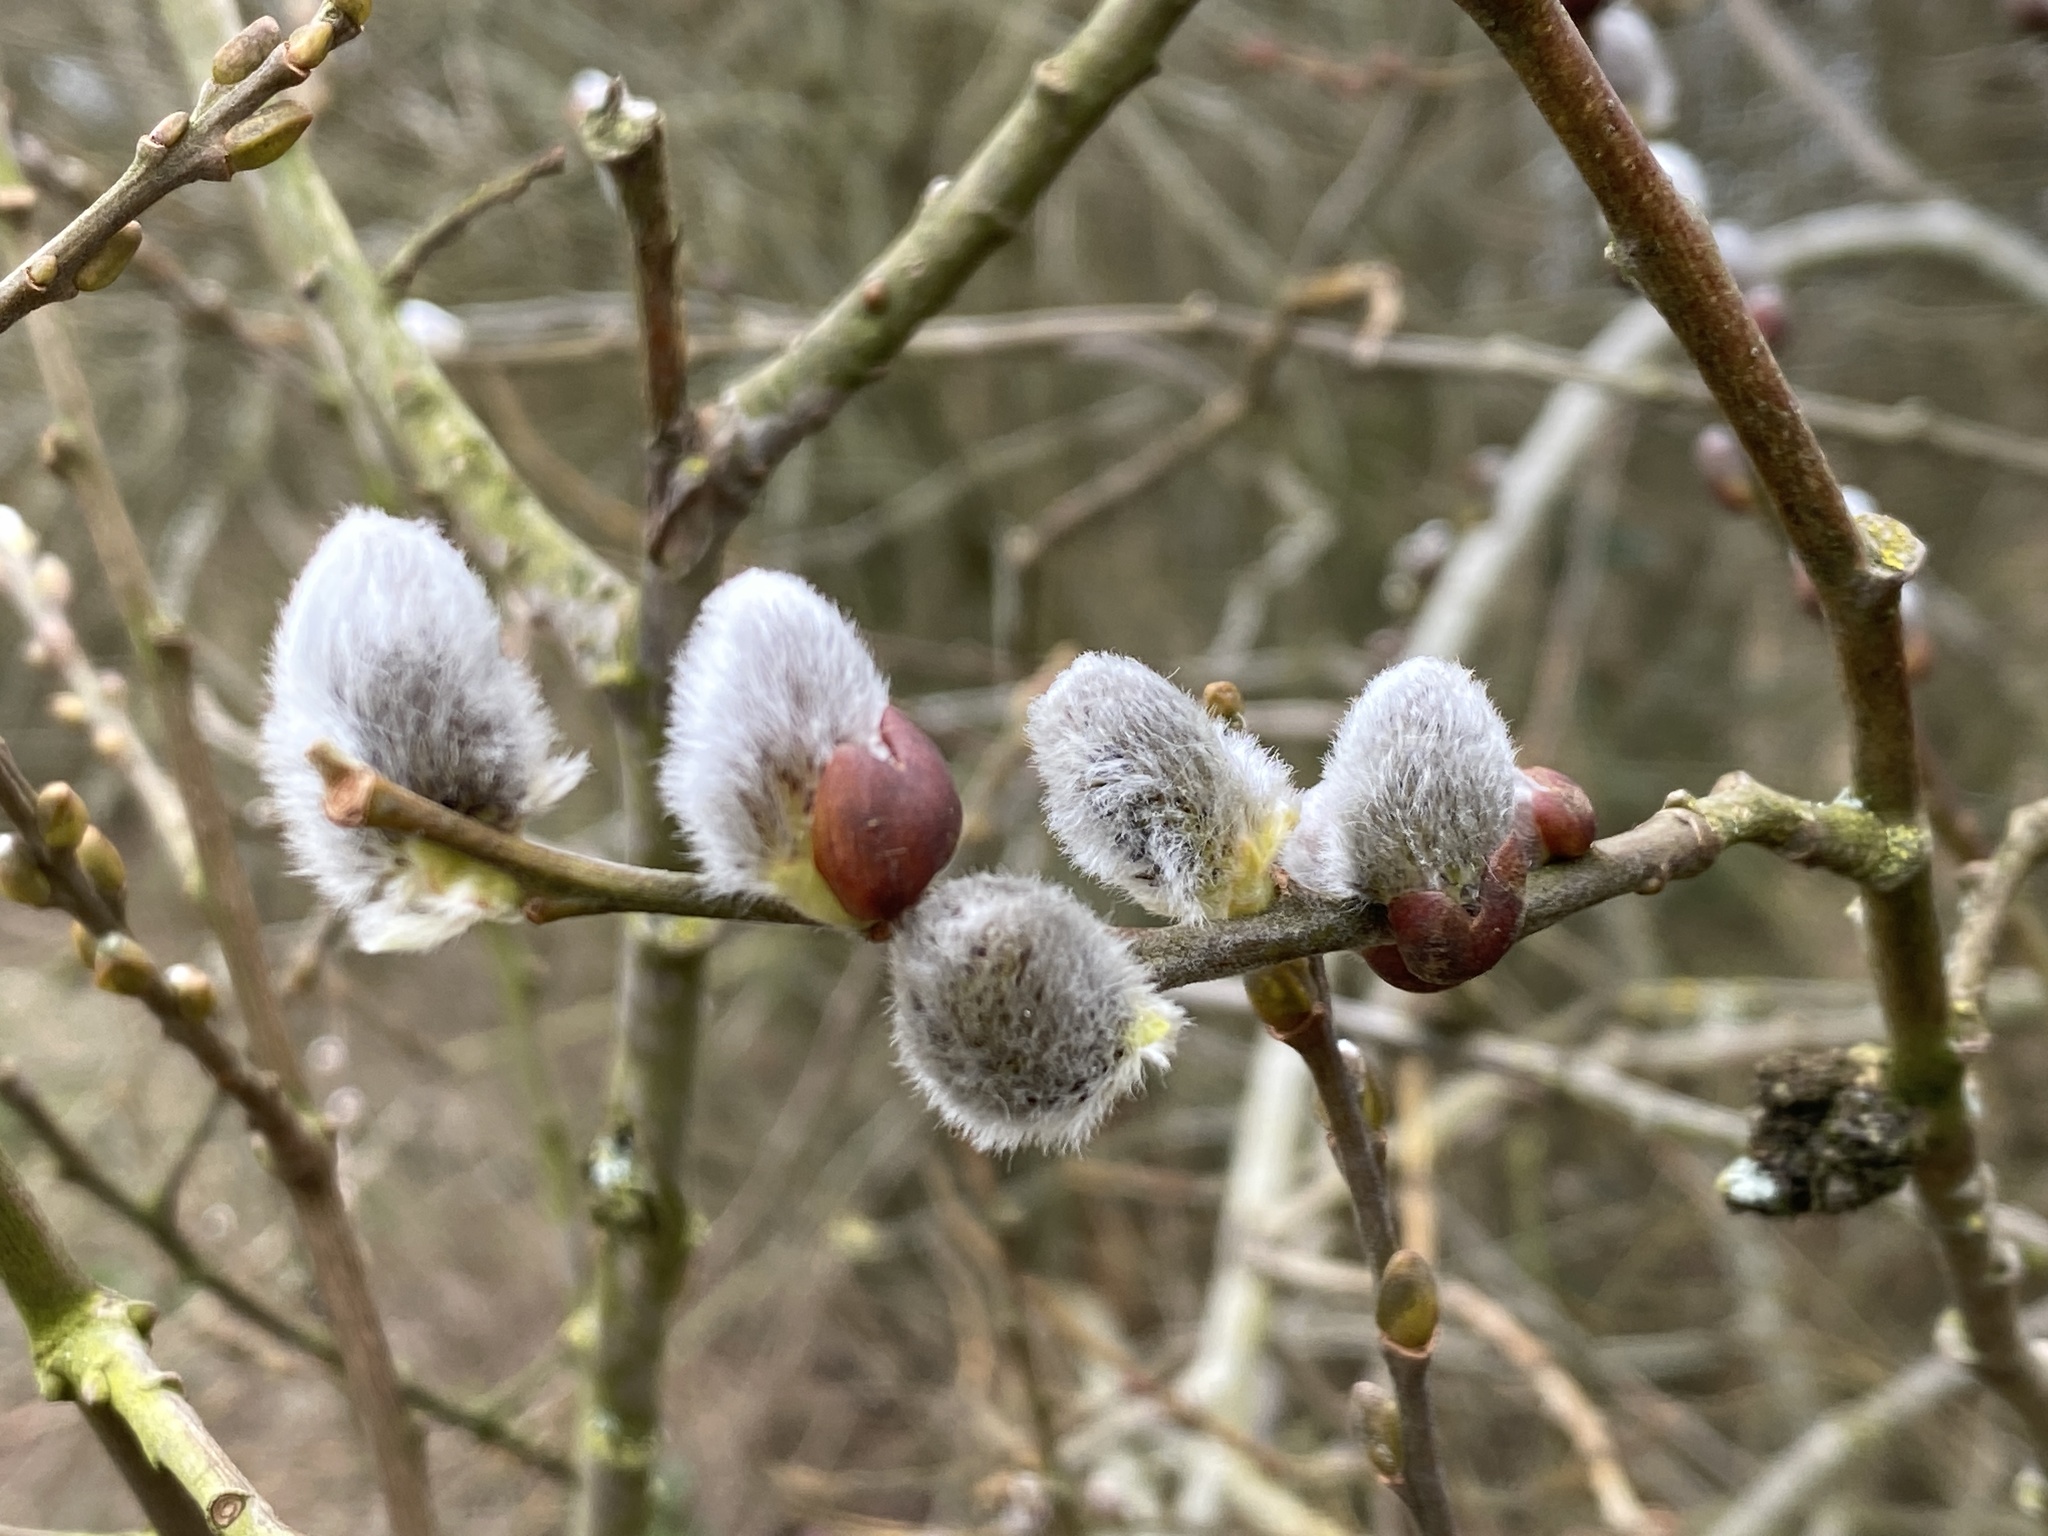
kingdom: Plantae
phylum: Tracheophyta
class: Magnoliopsida
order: Malpighiales
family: Salicaceae
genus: Salix
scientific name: Salix caprea
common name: Goat willow
